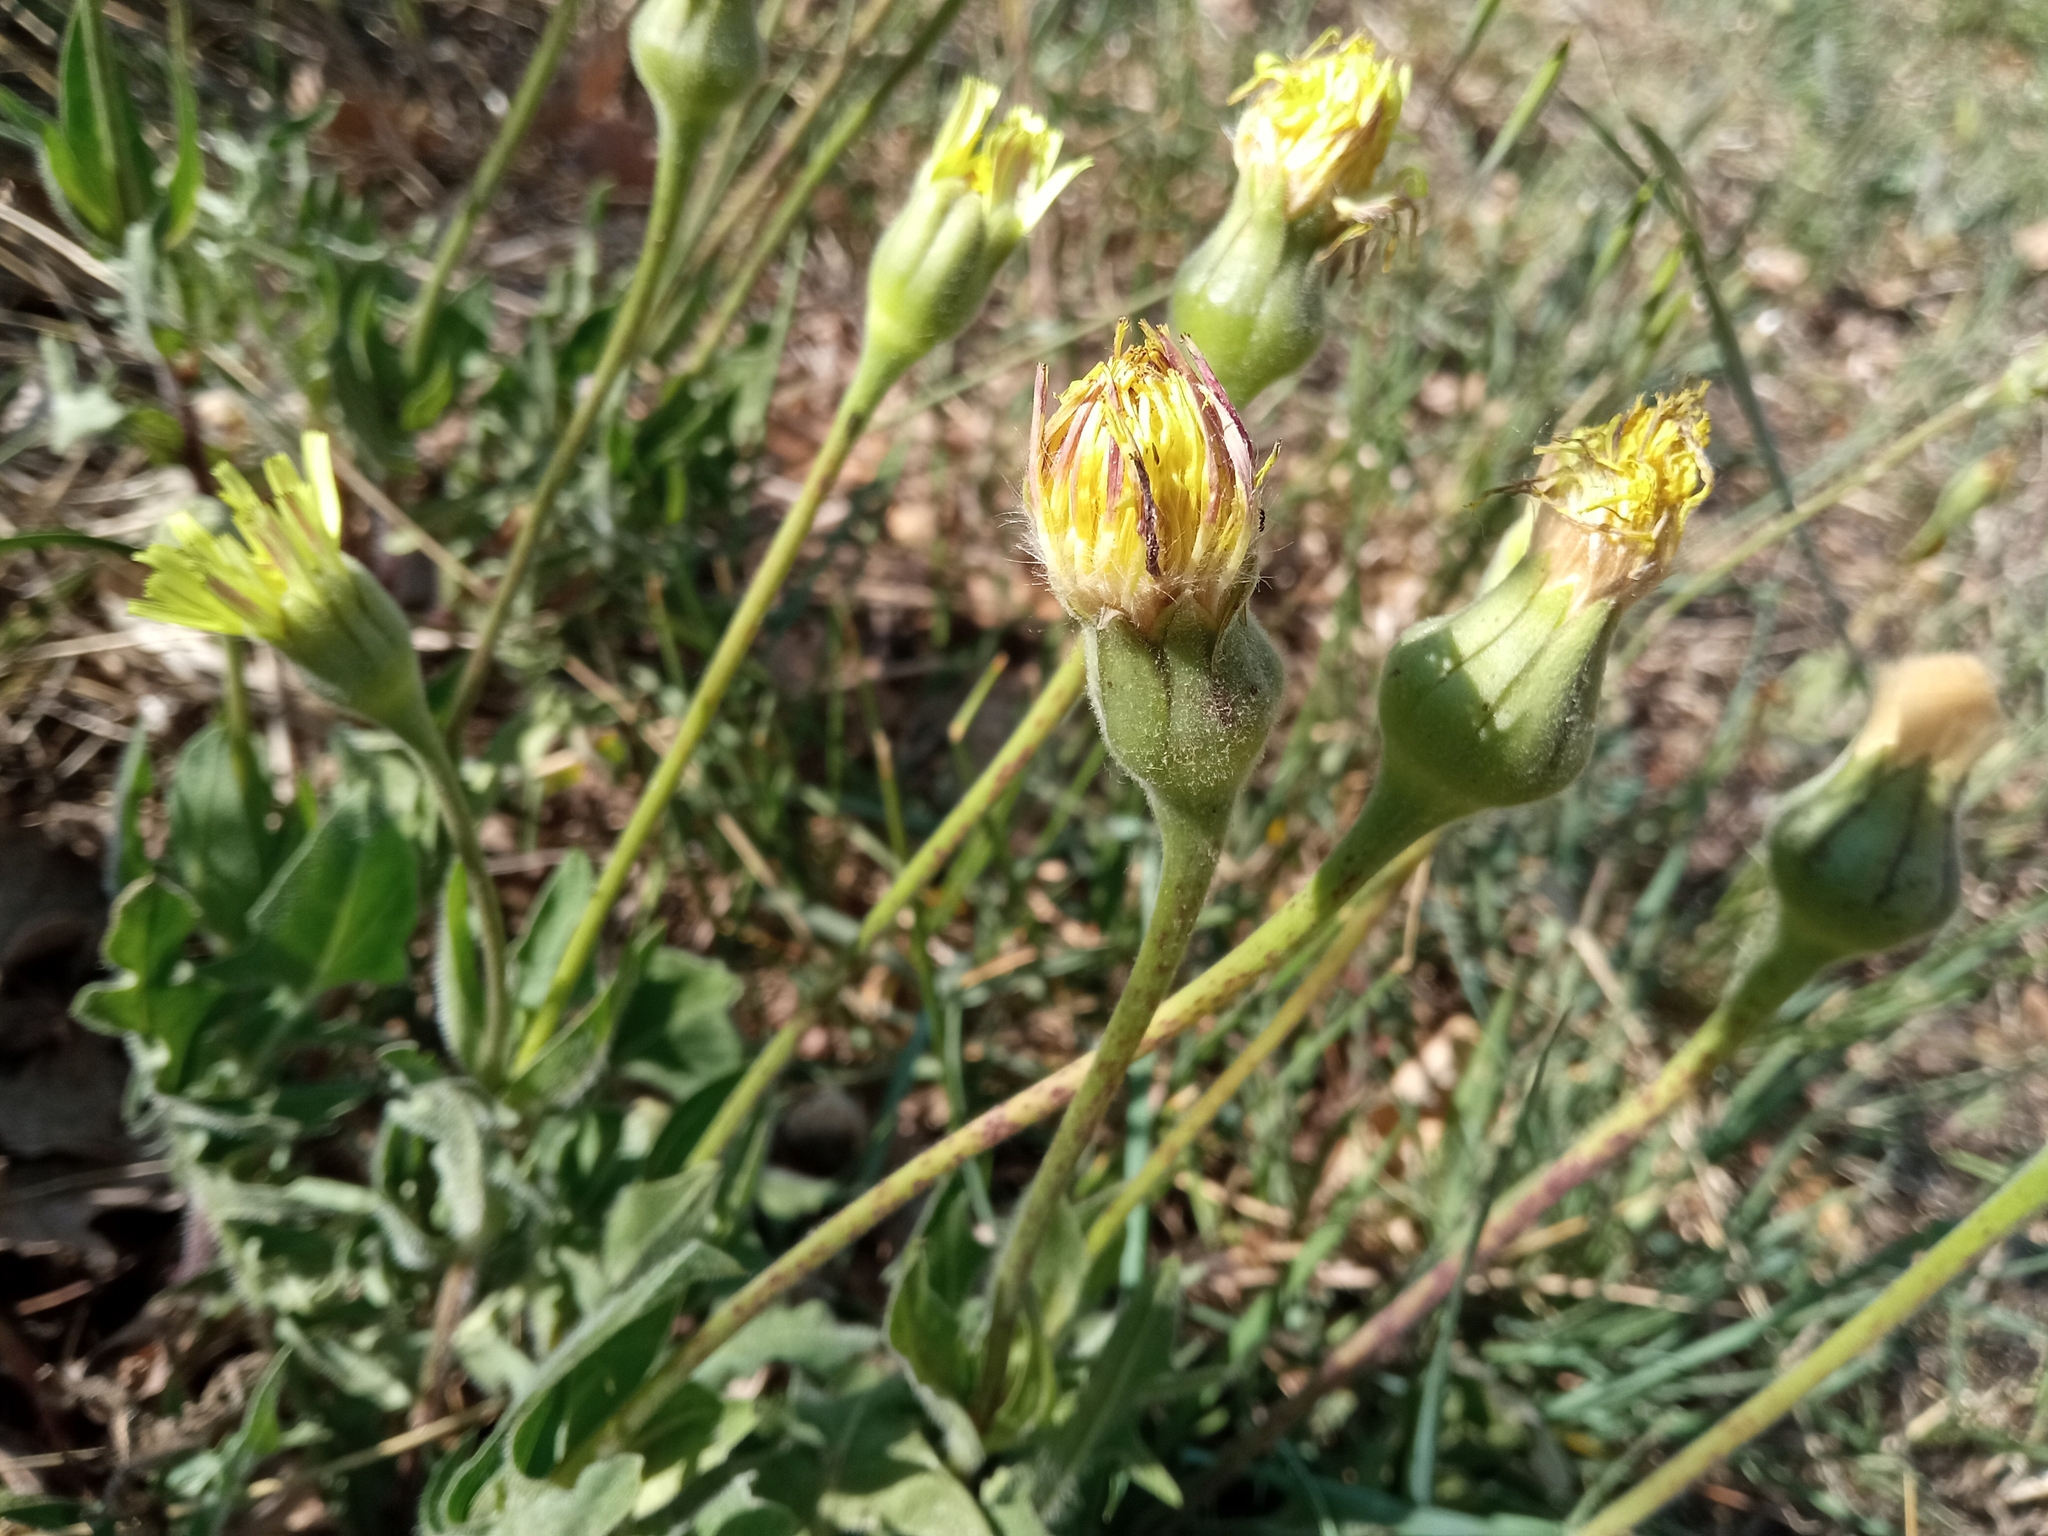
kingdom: Plantae
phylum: Tracheophyta
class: Magnoliopsida
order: Asterales
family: Asteraceae
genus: Urospermum
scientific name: Urospermum dalechampii
